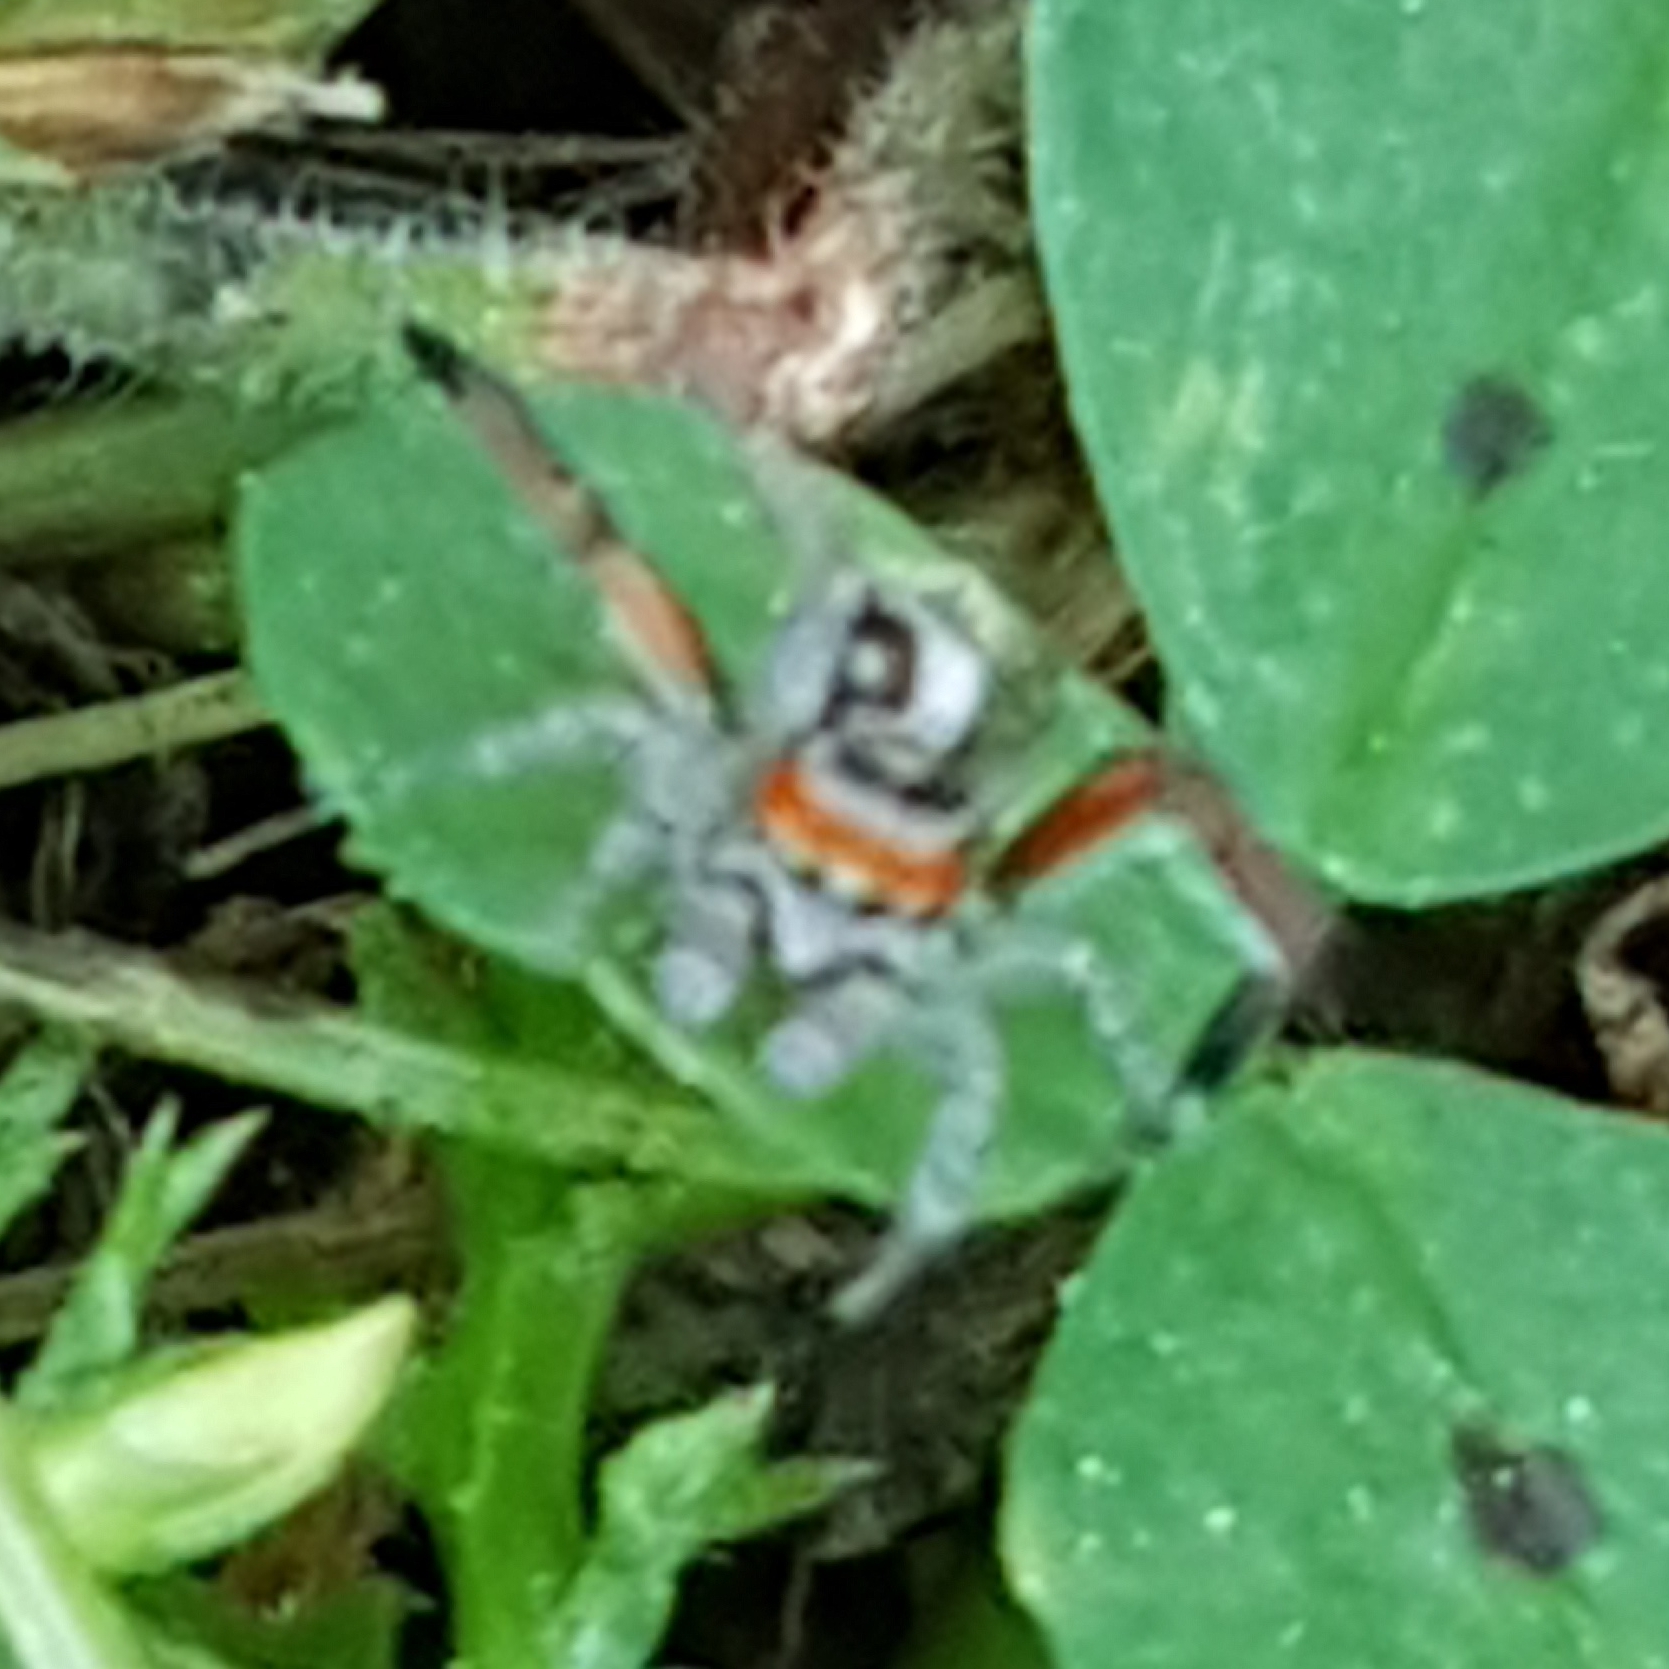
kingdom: Animalia
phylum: Arthropoda
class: Arachnida
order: Araneae
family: Salticidae
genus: Saitis
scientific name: Saitis barbipes
